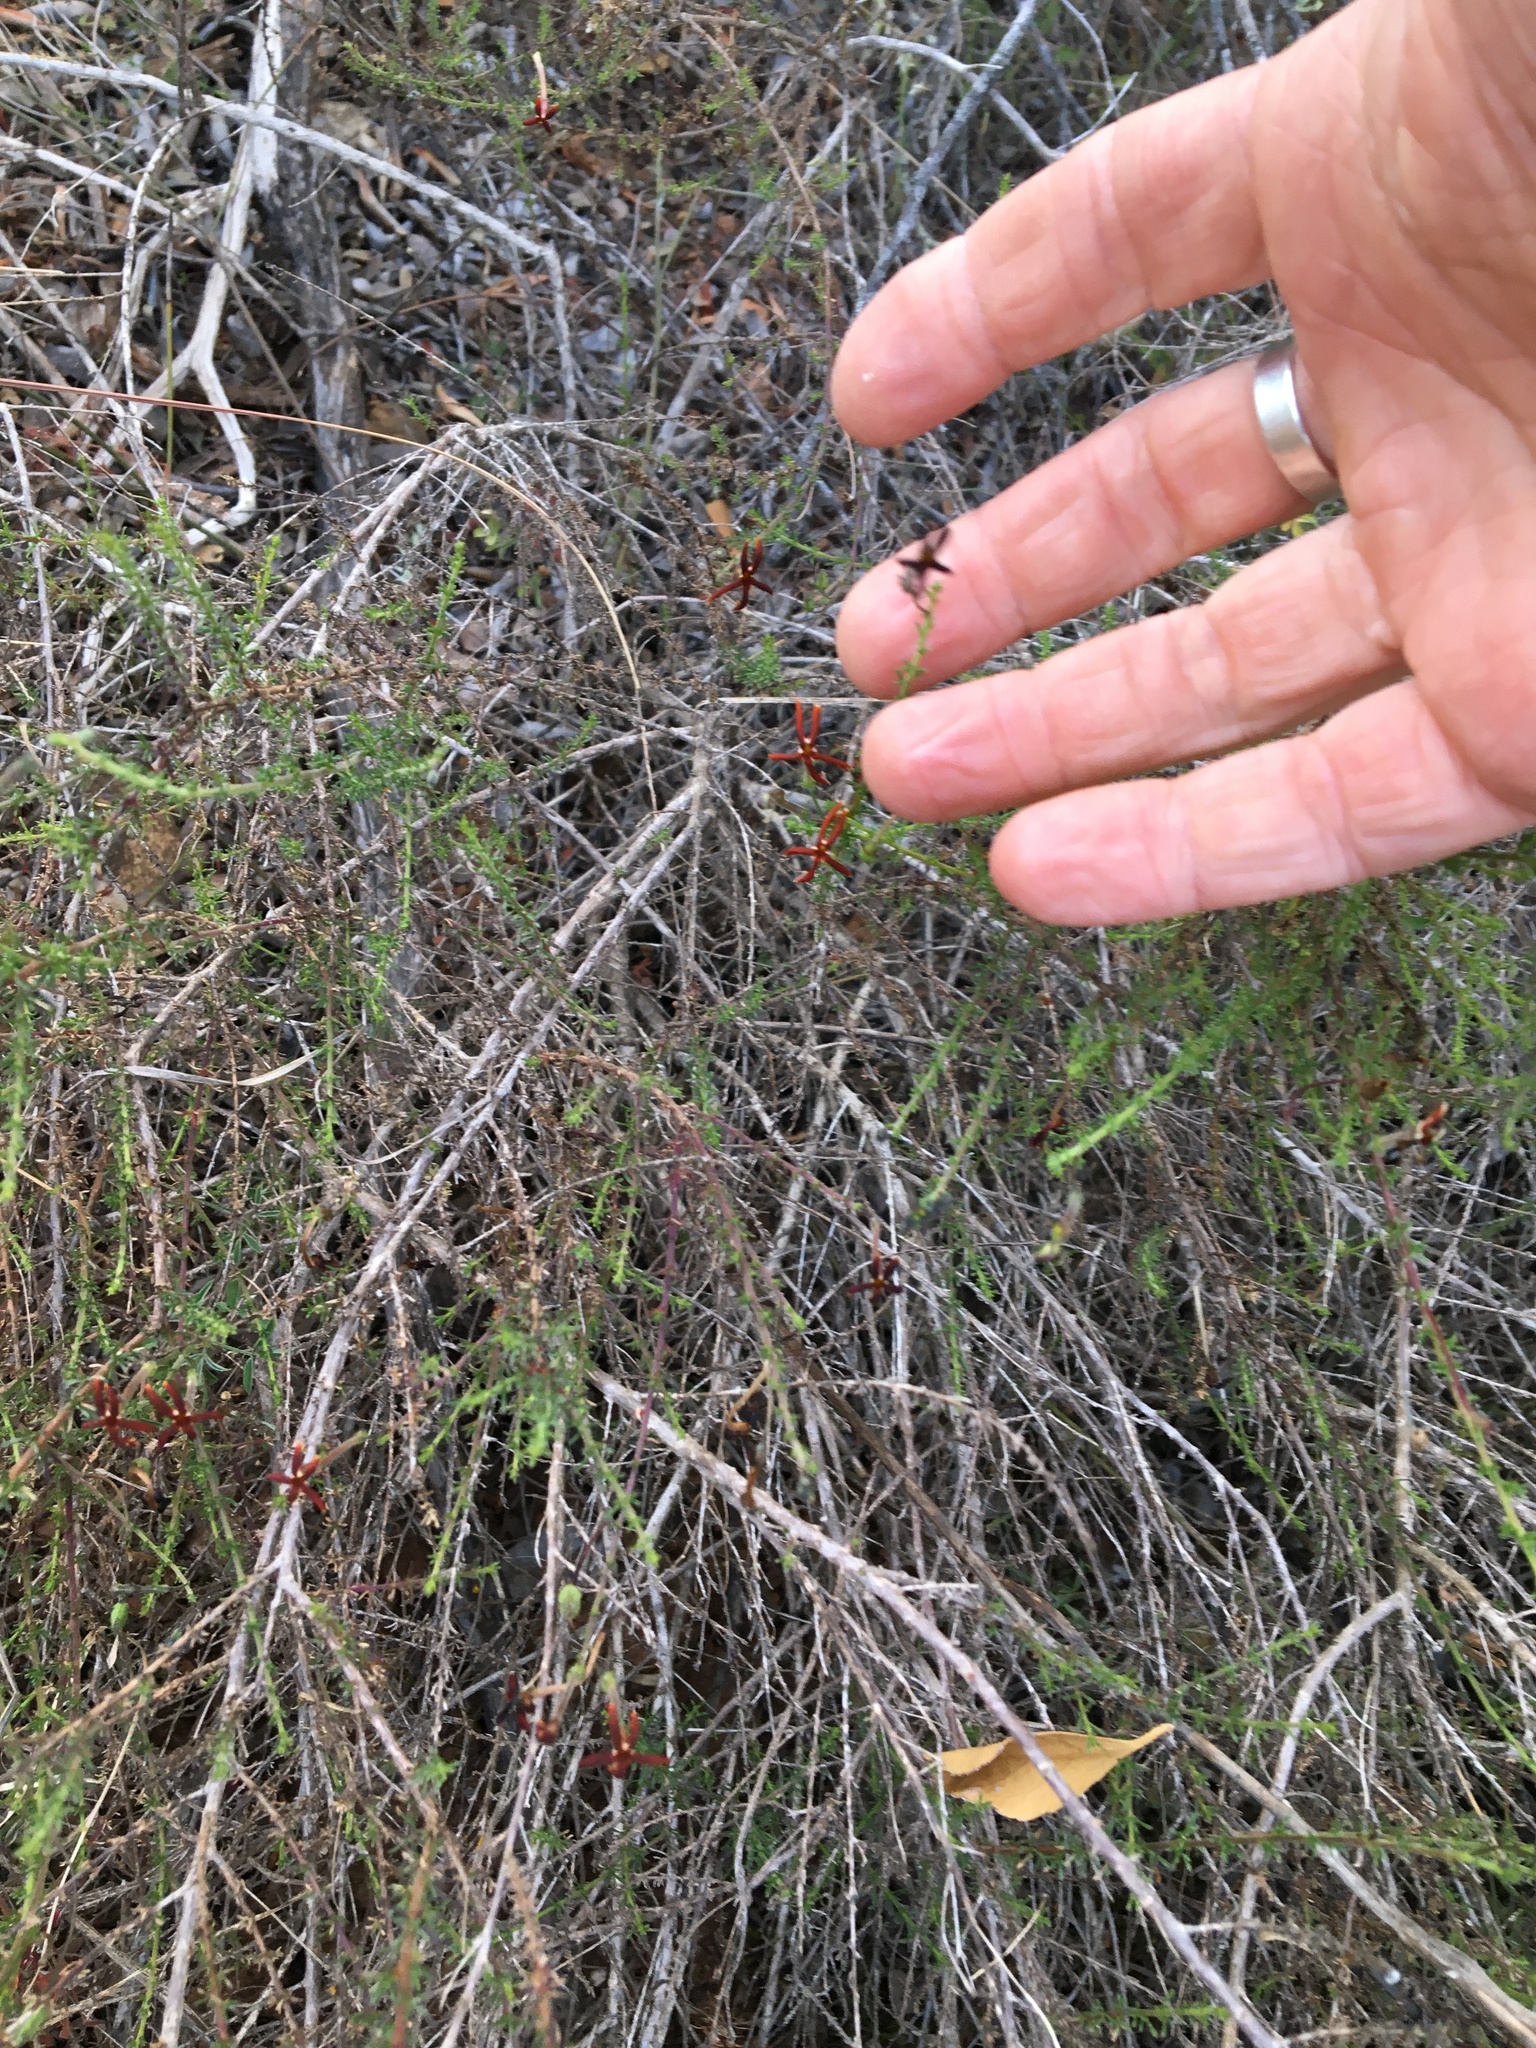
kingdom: Plantae
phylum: Tracheophyta
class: Magnoliopsida
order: Lamiales
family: Scrophulariaceae
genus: Jamesbrittenia
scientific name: Jamesbrittenia atropurpurea
